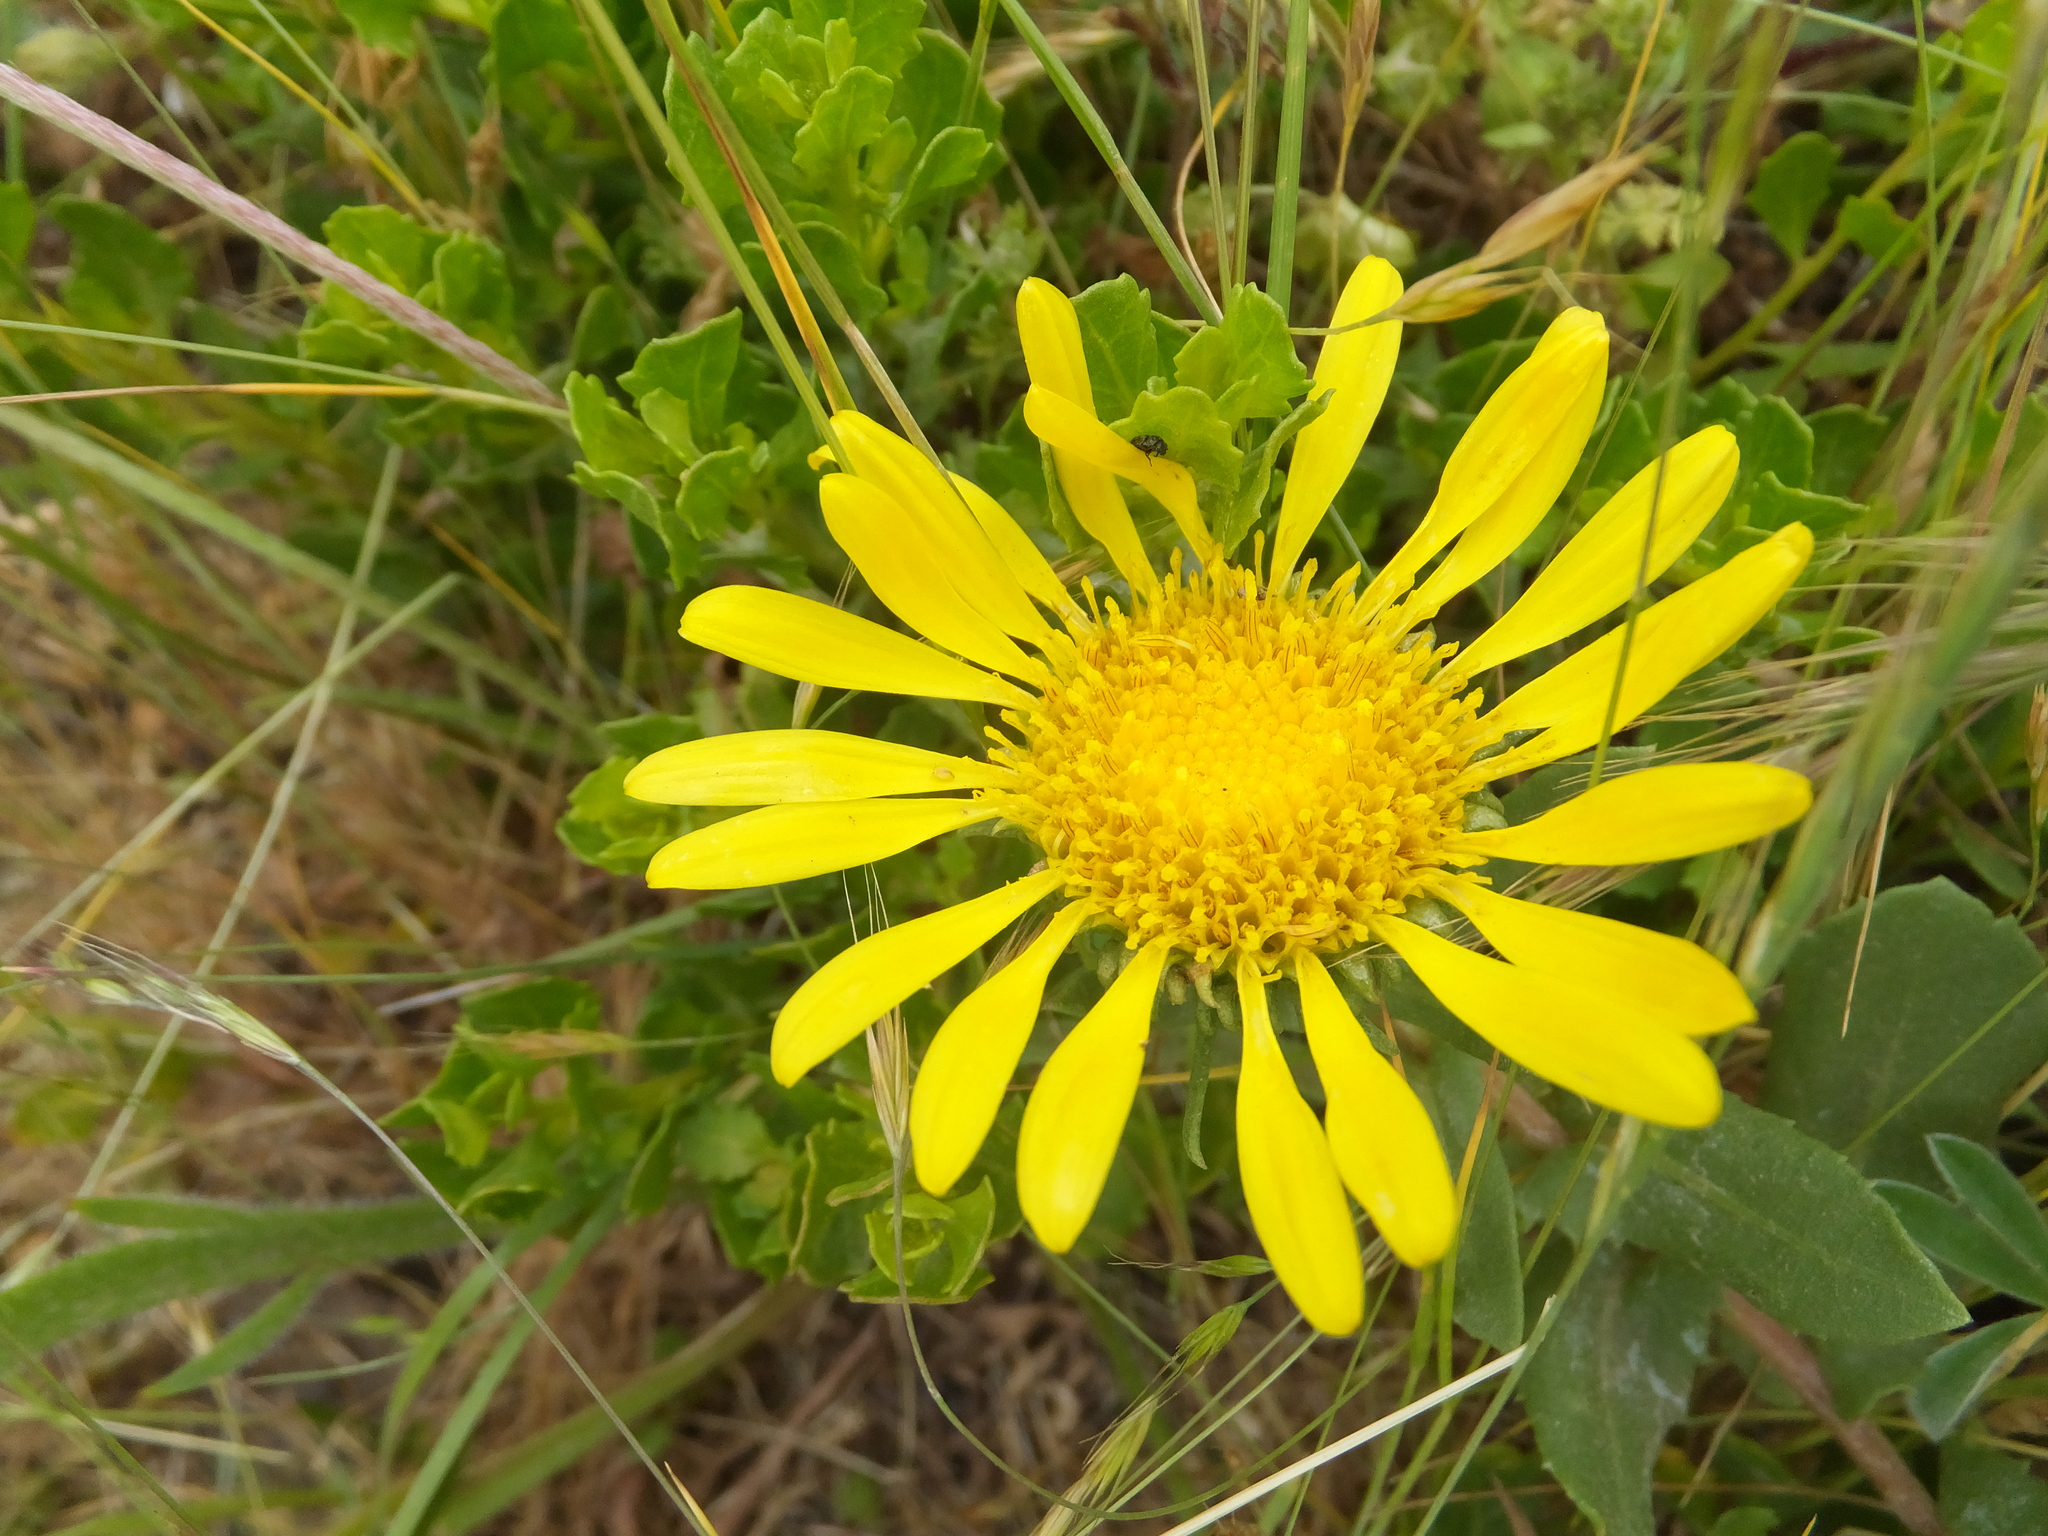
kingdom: Plantae
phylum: Tracheophyta
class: Magnoliopsida
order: Asterales
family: Asteraceae
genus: Grindelia
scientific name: Grindelia hirsutula
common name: Hairy gumweed
